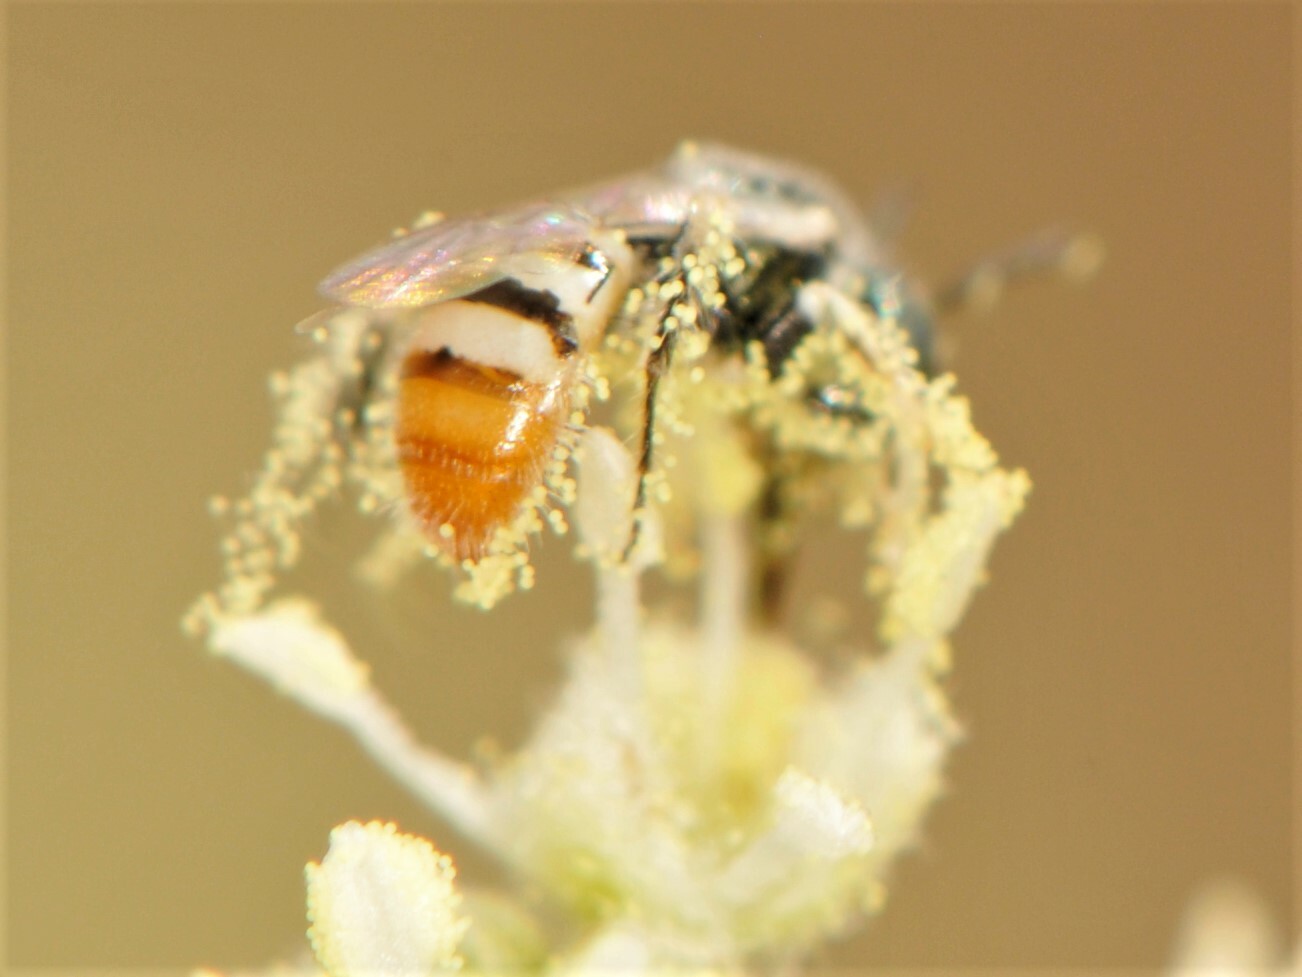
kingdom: Animalia
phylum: Arthropoda
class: Insecta
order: Hymenoptera
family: Andrenidae
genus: Perdita
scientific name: Perdita crotonis
